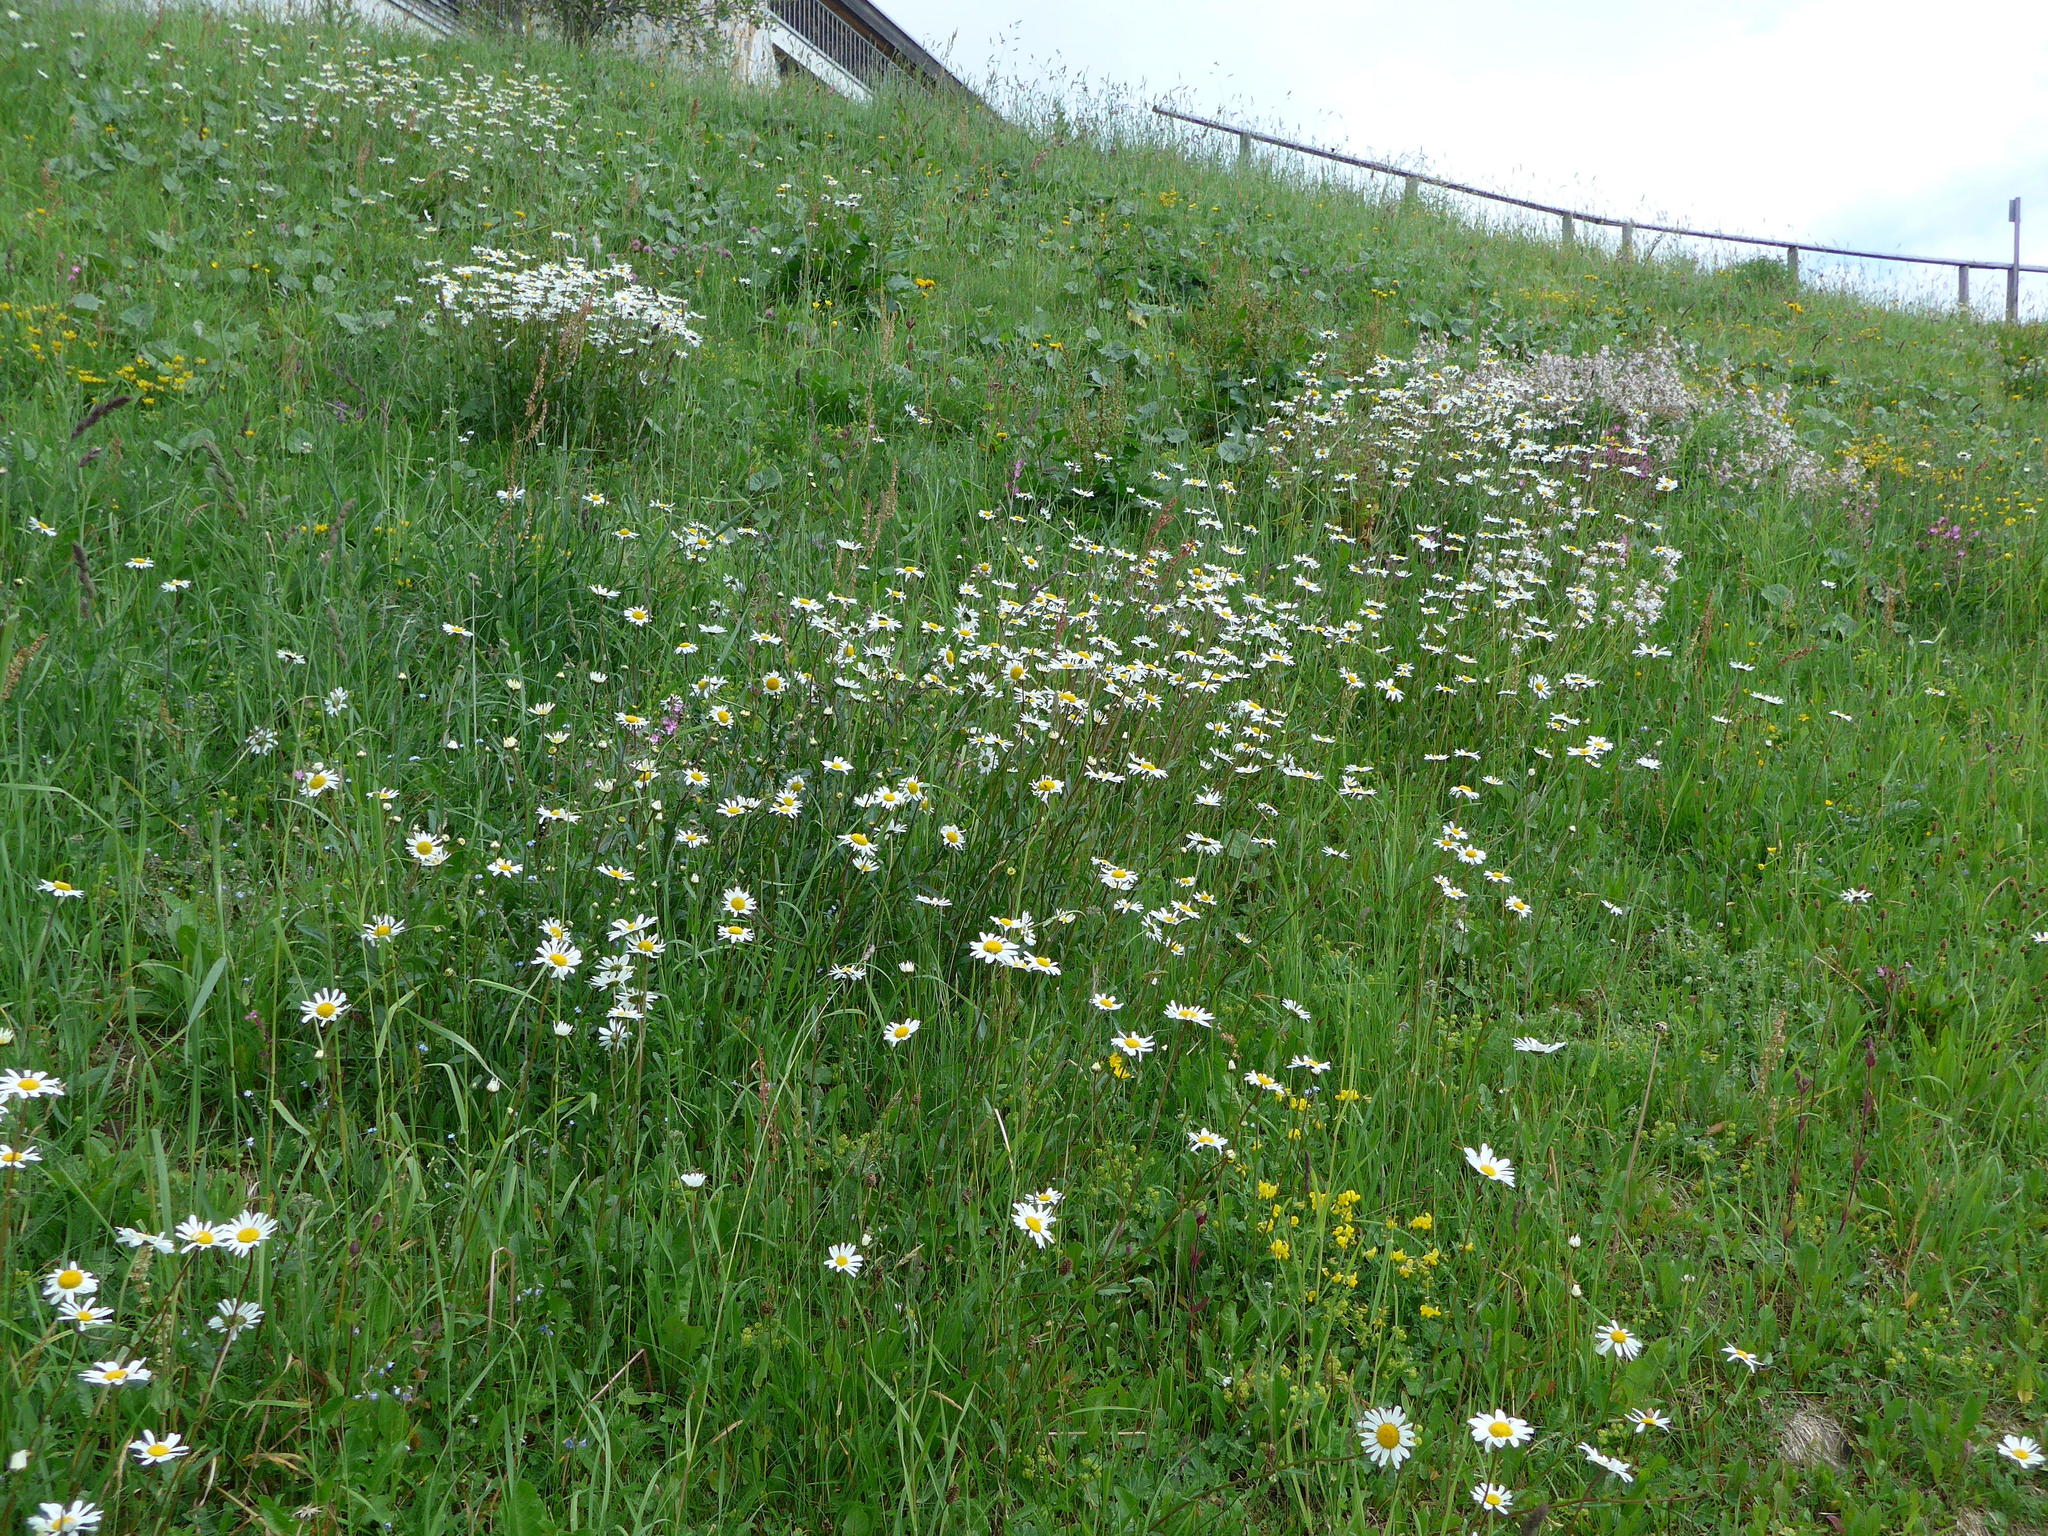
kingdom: Plantae
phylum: Tracheophyta
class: Magnoliopsida
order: Asterales
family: Asteraceae
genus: Leucanthemum
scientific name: Leucanthemum vulgare
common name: Oxeye daisy
